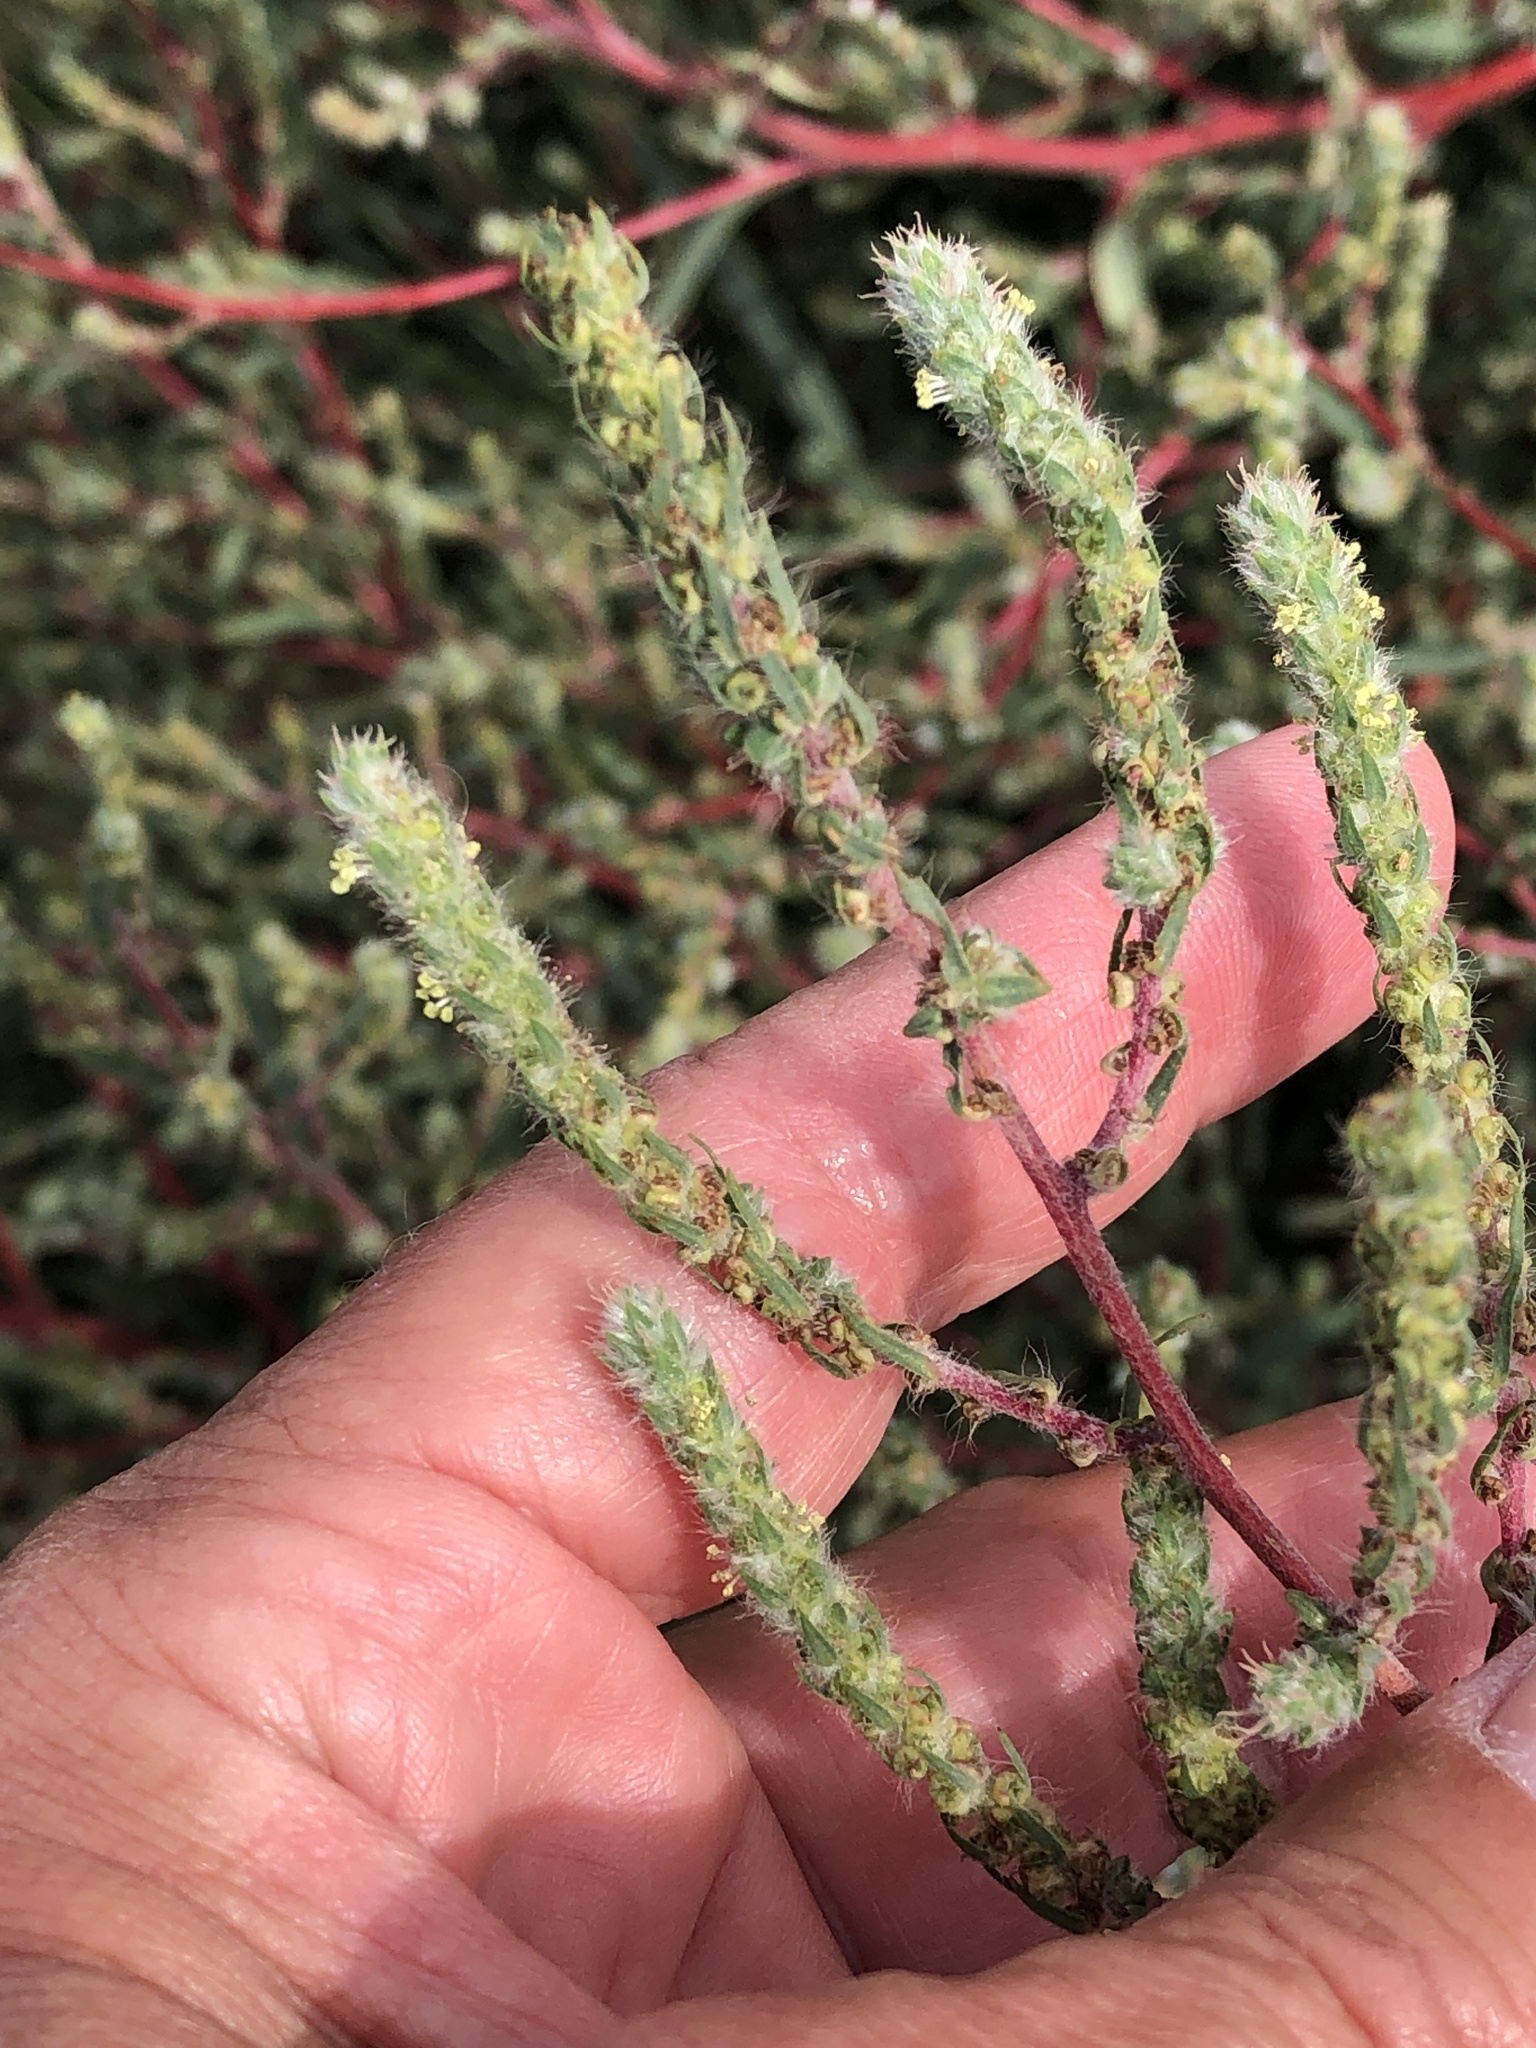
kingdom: Plantae
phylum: Tracheophyta
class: Magnoliopsida
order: Caryophyllales
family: Amaranthaceae
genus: Bassia
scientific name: Bassia scoparia
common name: Belvedere
